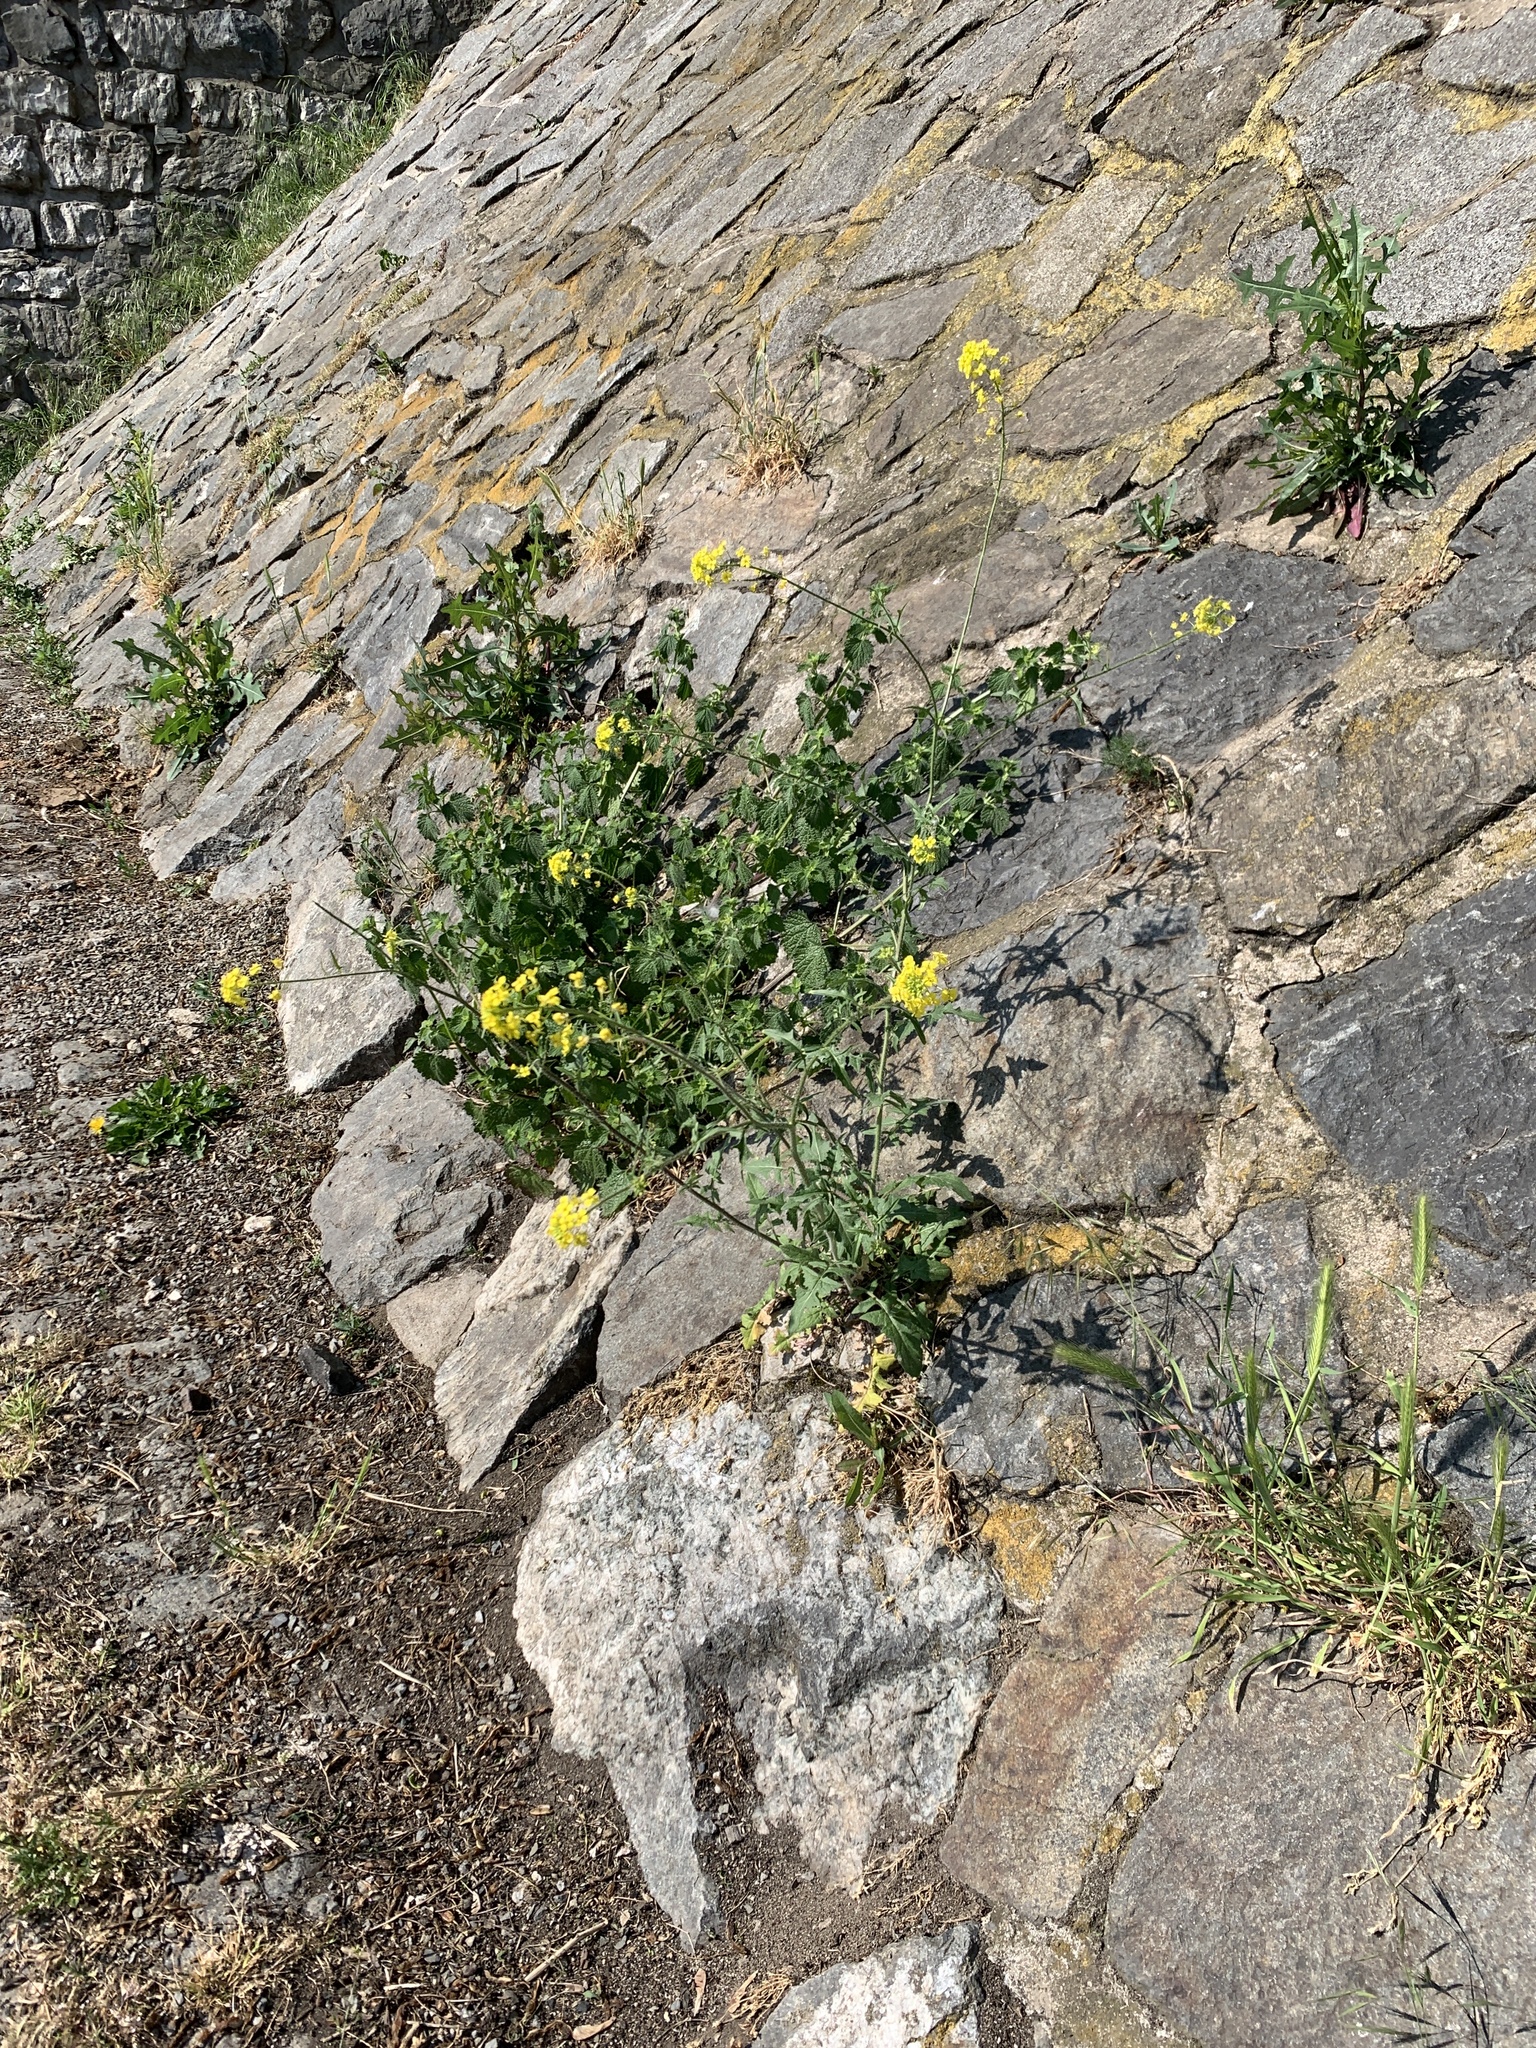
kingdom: Plantae
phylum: Tracheophyta
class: Magnoliopsida
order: Brassicales
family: Brassicaceae
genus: Sisymbrium
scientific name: Sisymbrium loeselii
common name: False london-rocket
